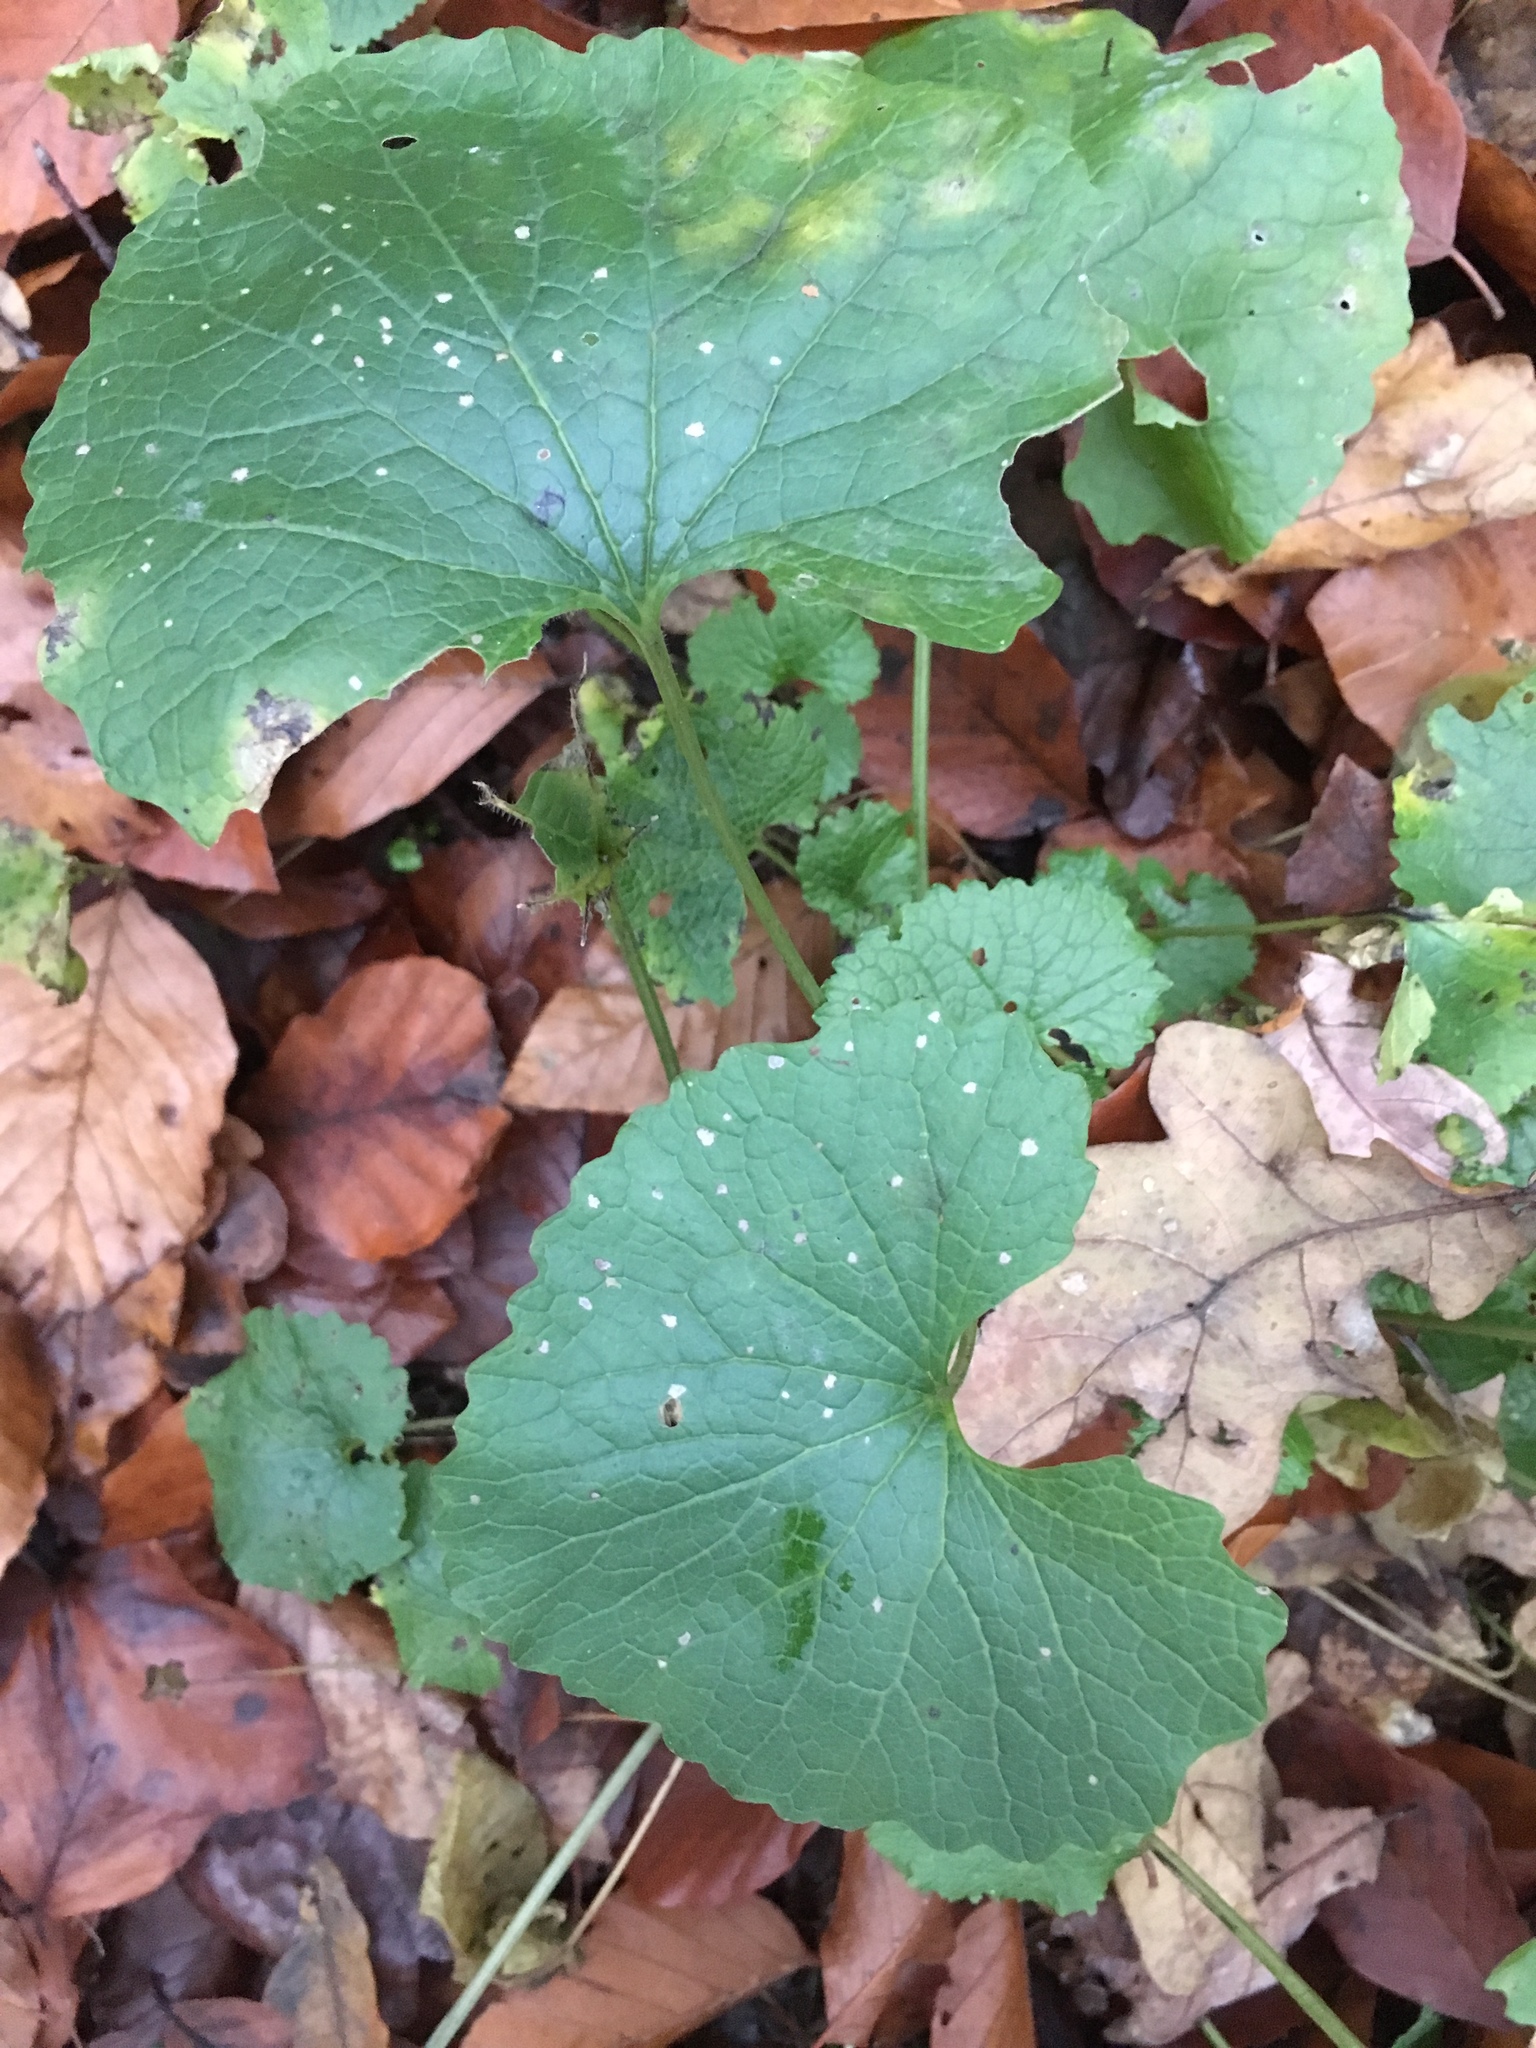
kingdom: Plantae
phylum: Tracheophyta
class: Magnoliopsida
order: Brassicales
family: Brassicaceae
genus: Alliaria
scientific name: Alliaria petiolata
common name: Garlic mustard
